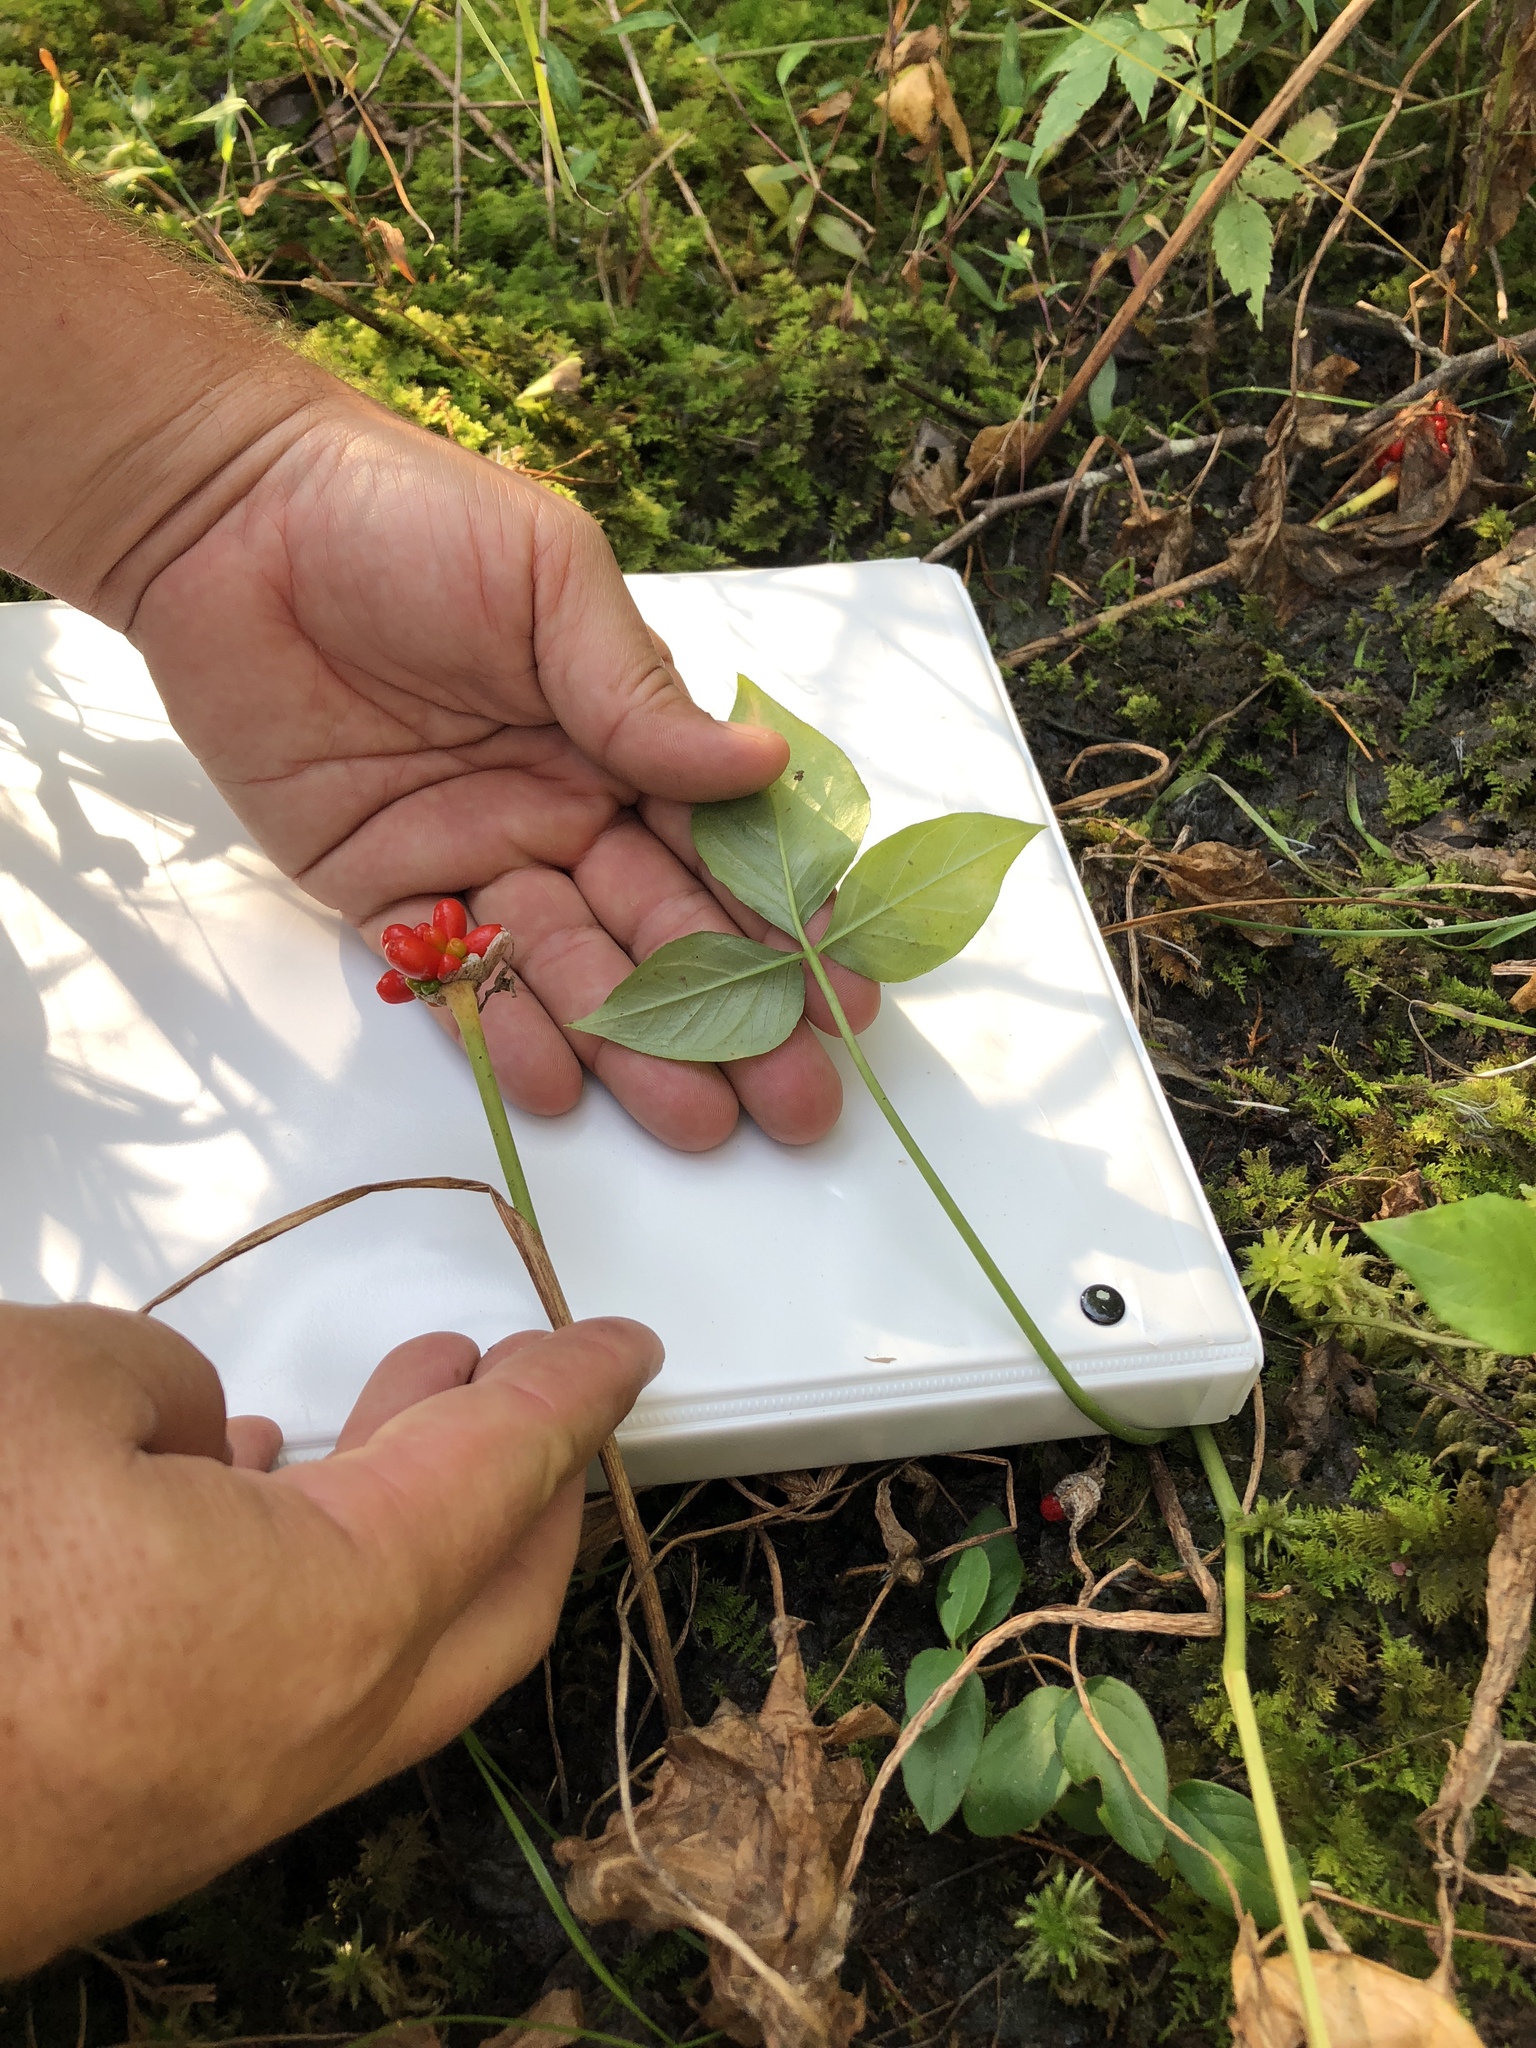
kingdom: Plantae
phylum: Tracheophyta
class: Liliopsida
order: Alismatales
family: Araceae
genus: Arisaema
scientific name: Arisaema pusillum
